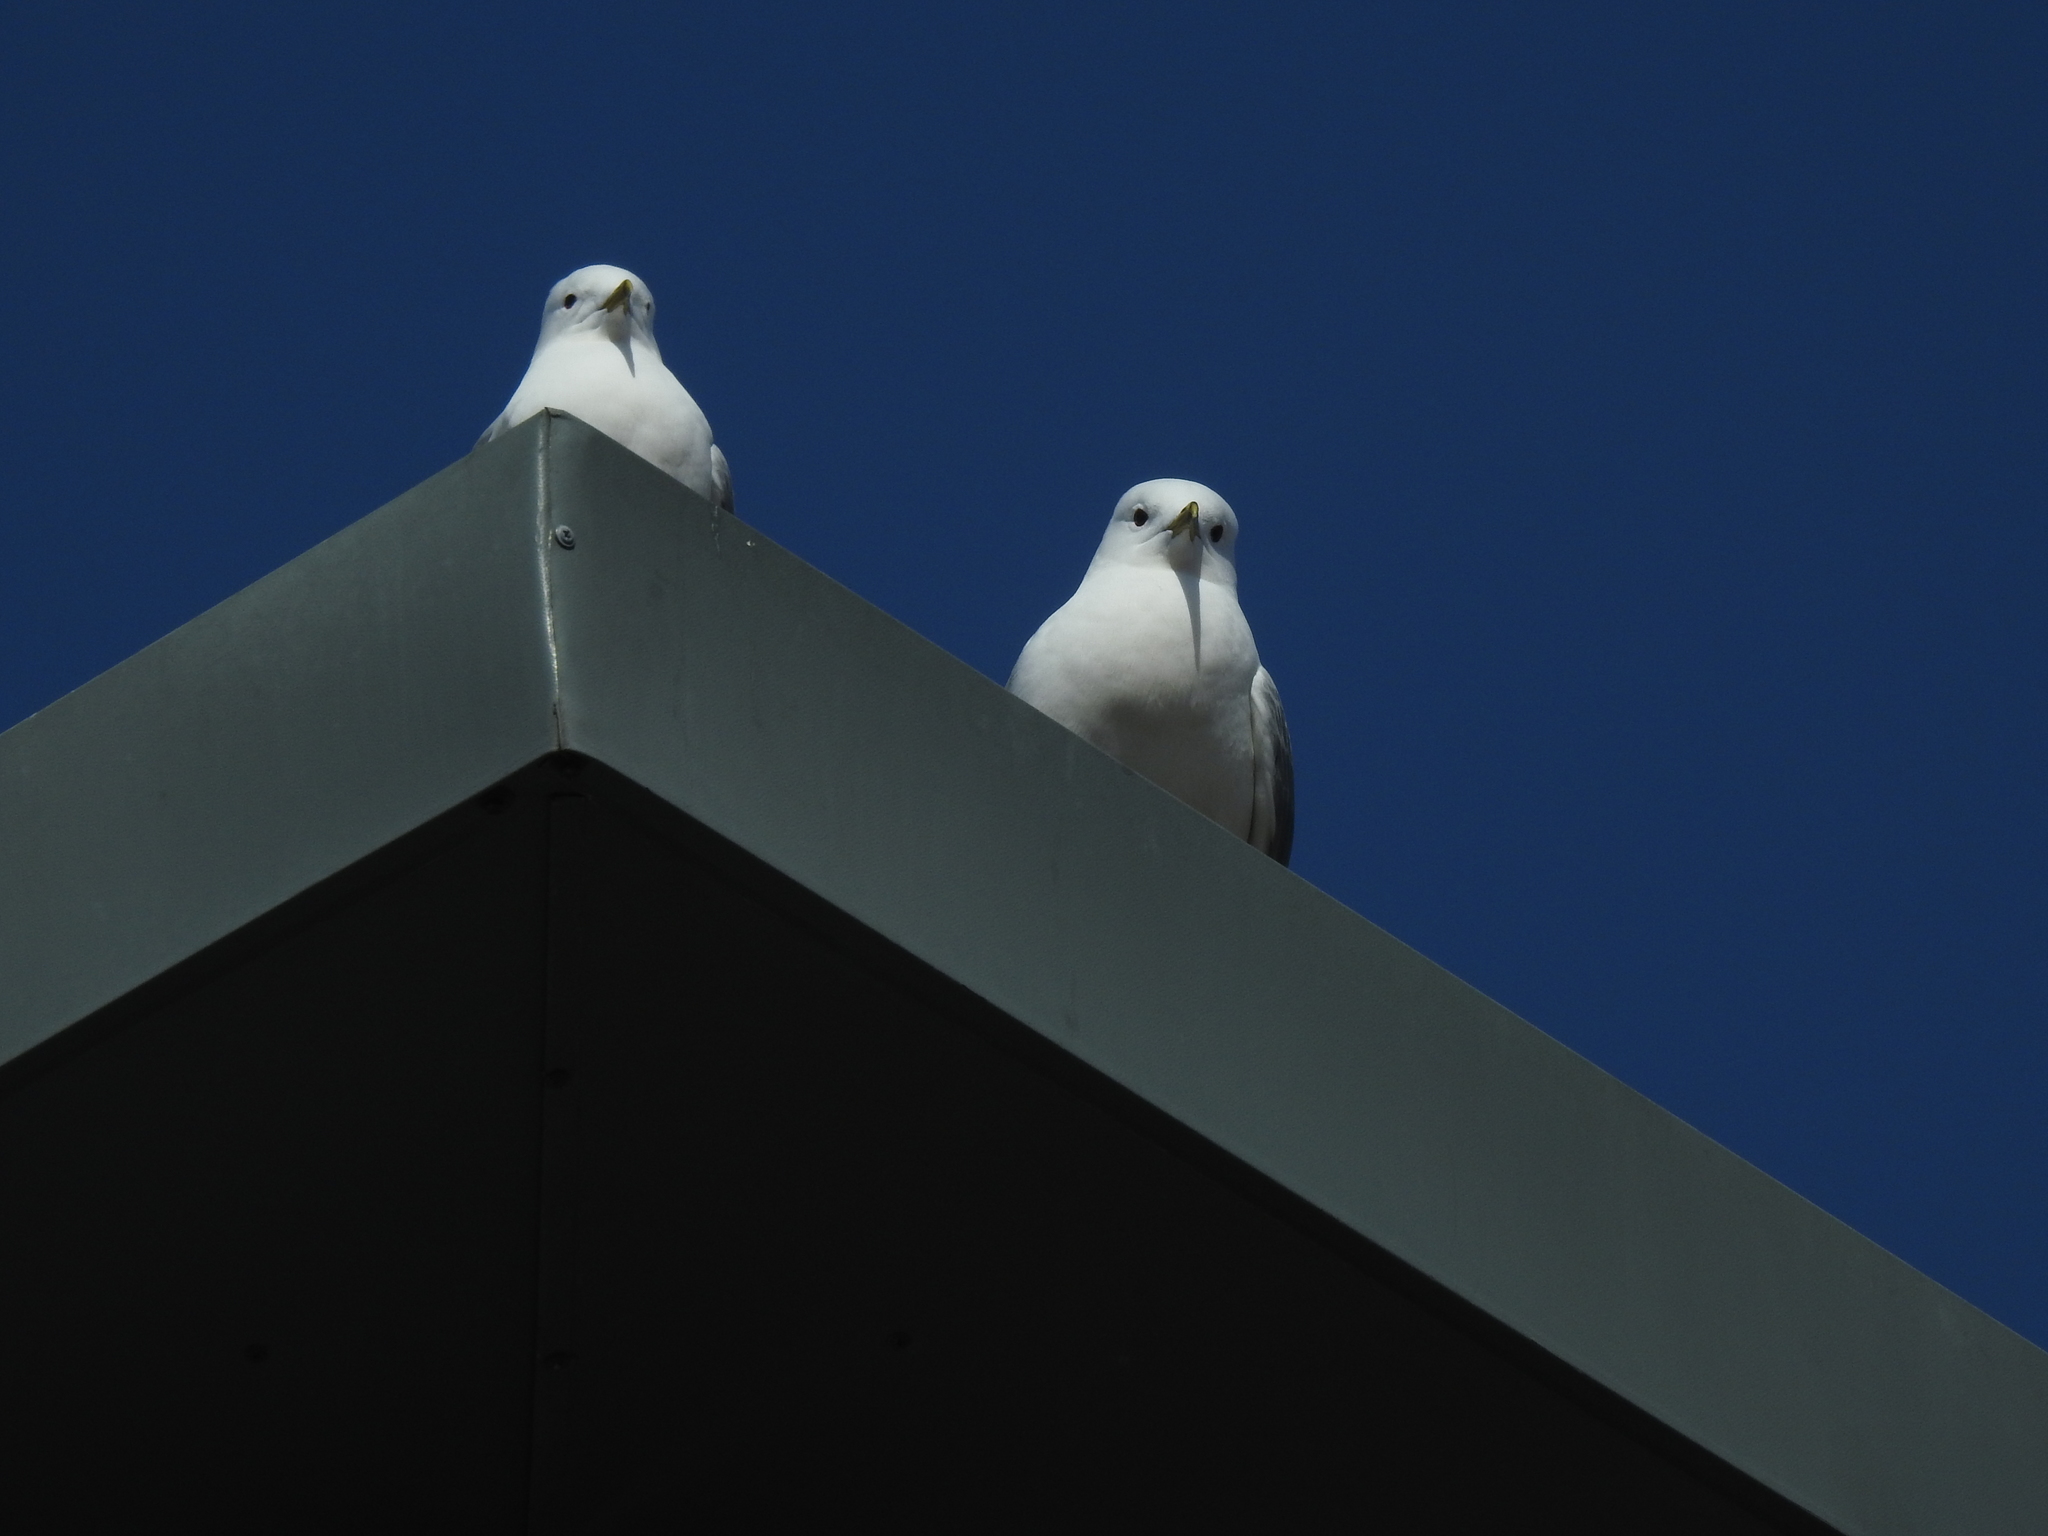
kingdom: Animalia
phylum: Chordata
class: Aves
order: Charadriiformes
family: Laridae
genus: Larus
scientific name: Larus canus
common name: Mew gull
